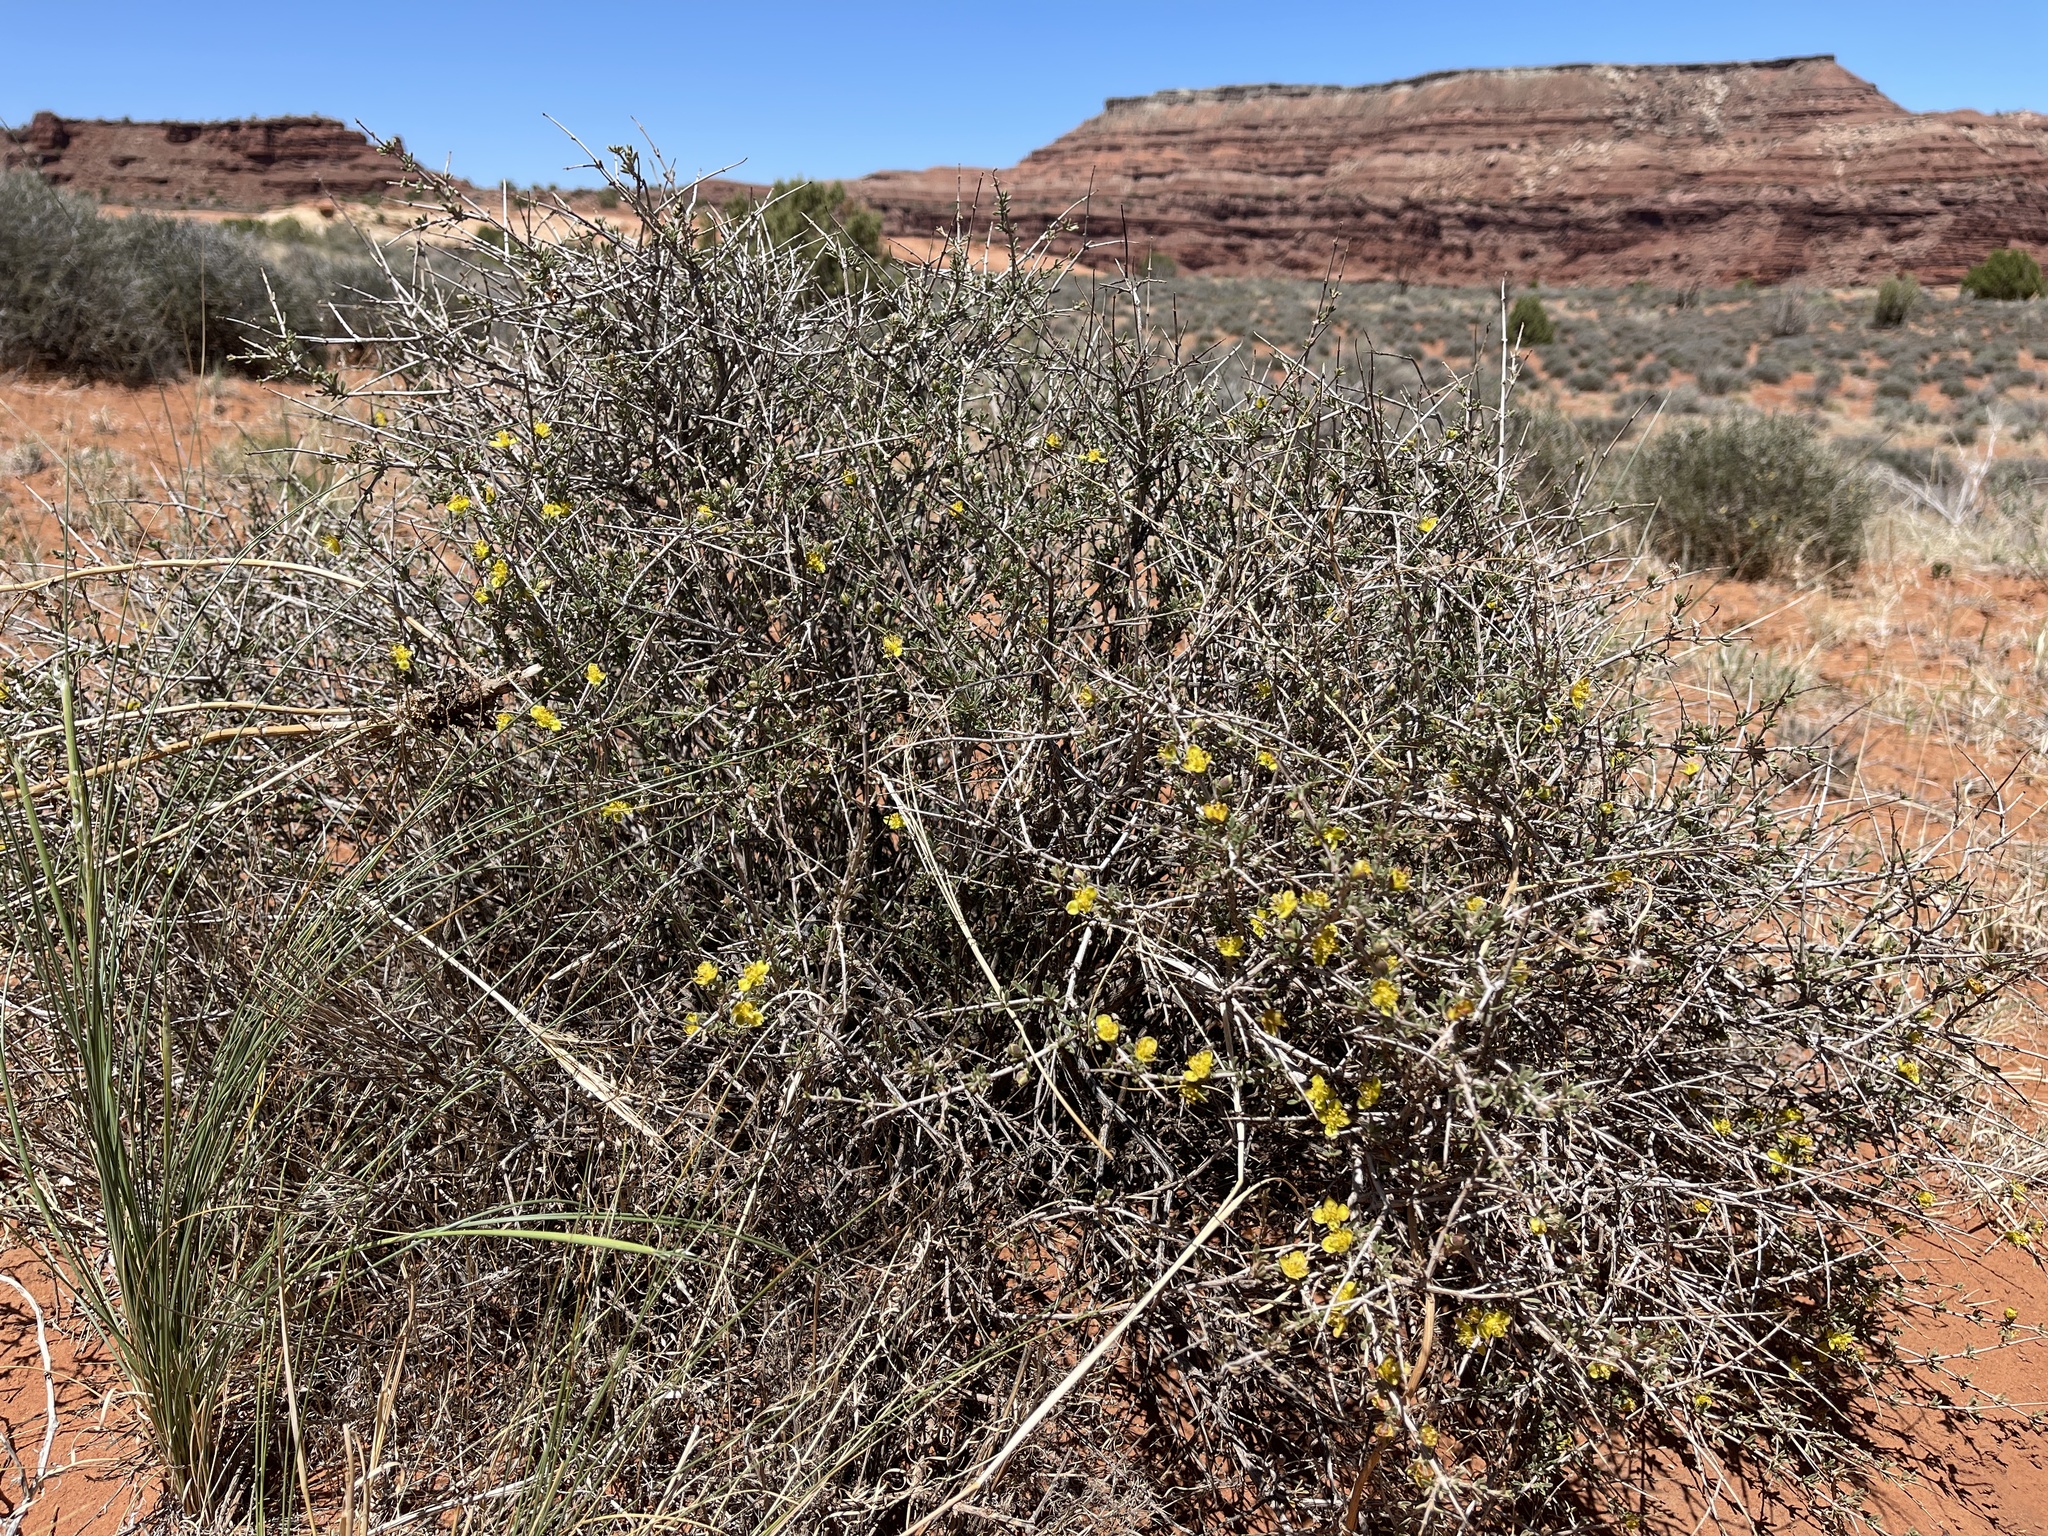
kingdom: Plantae
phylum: Tracheophyta
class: Magnoliopsida
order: Rosales
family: Rosaceae
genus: Coleogyne
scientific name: Coleogyne ramosissima
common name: Blackbrush
